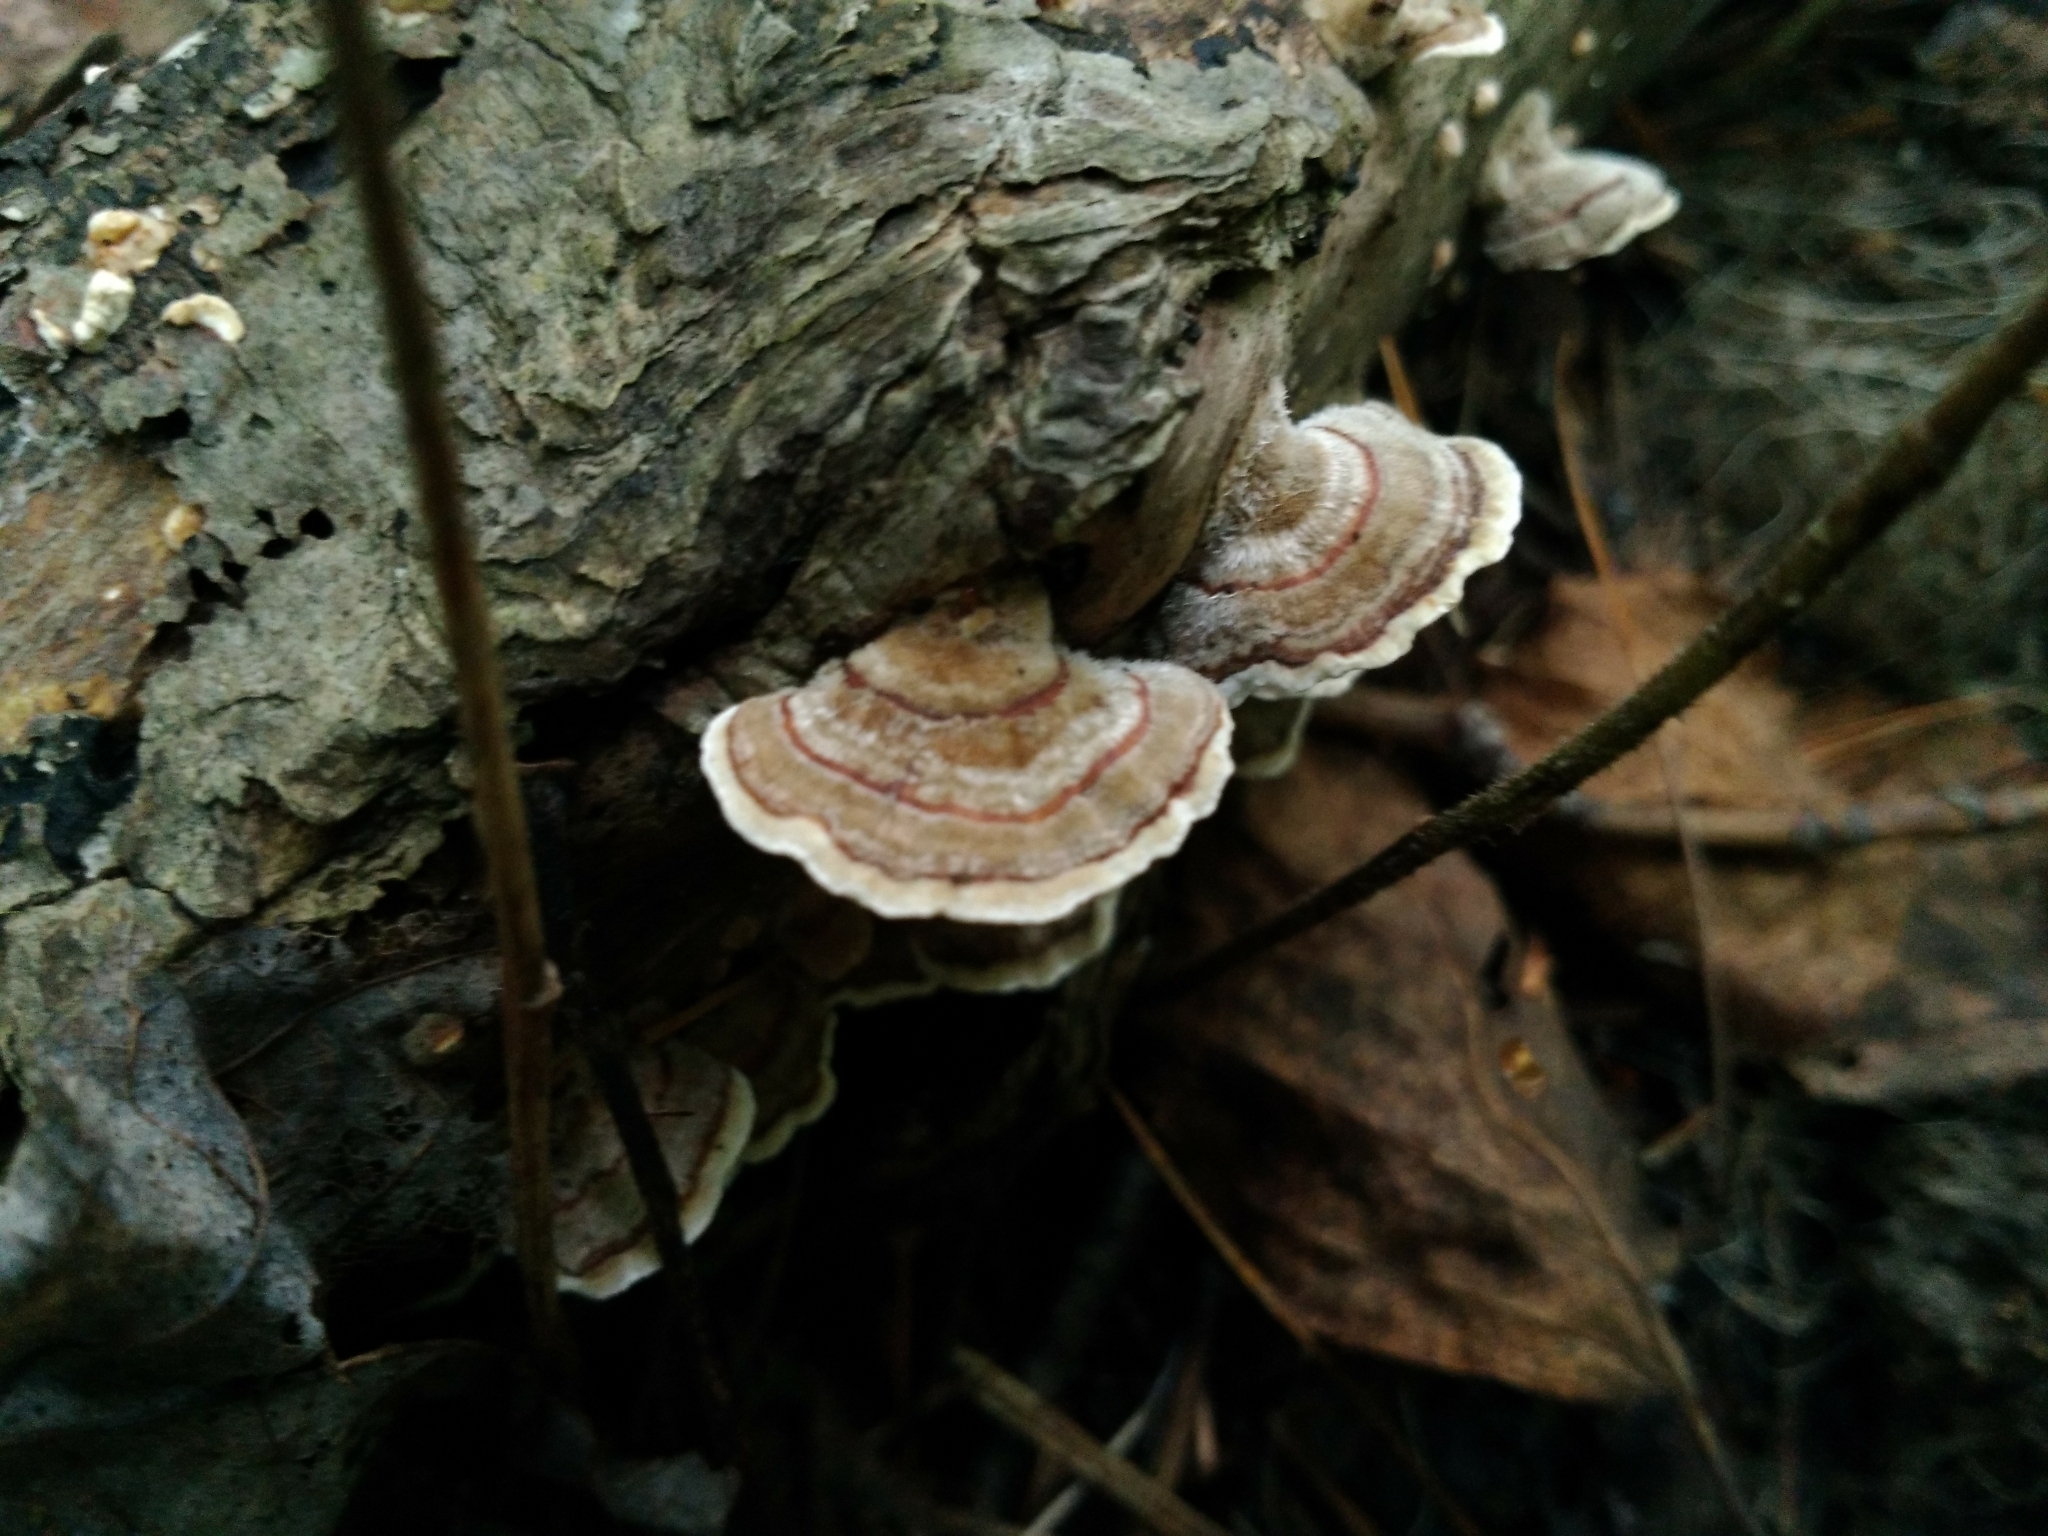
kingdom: Fungi
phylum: Basidiomycota
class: Agaricomycetes
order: Polyporales
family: Polyporaceae
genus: Trametes
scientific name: Trametes versicolor
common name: Turkeytail
